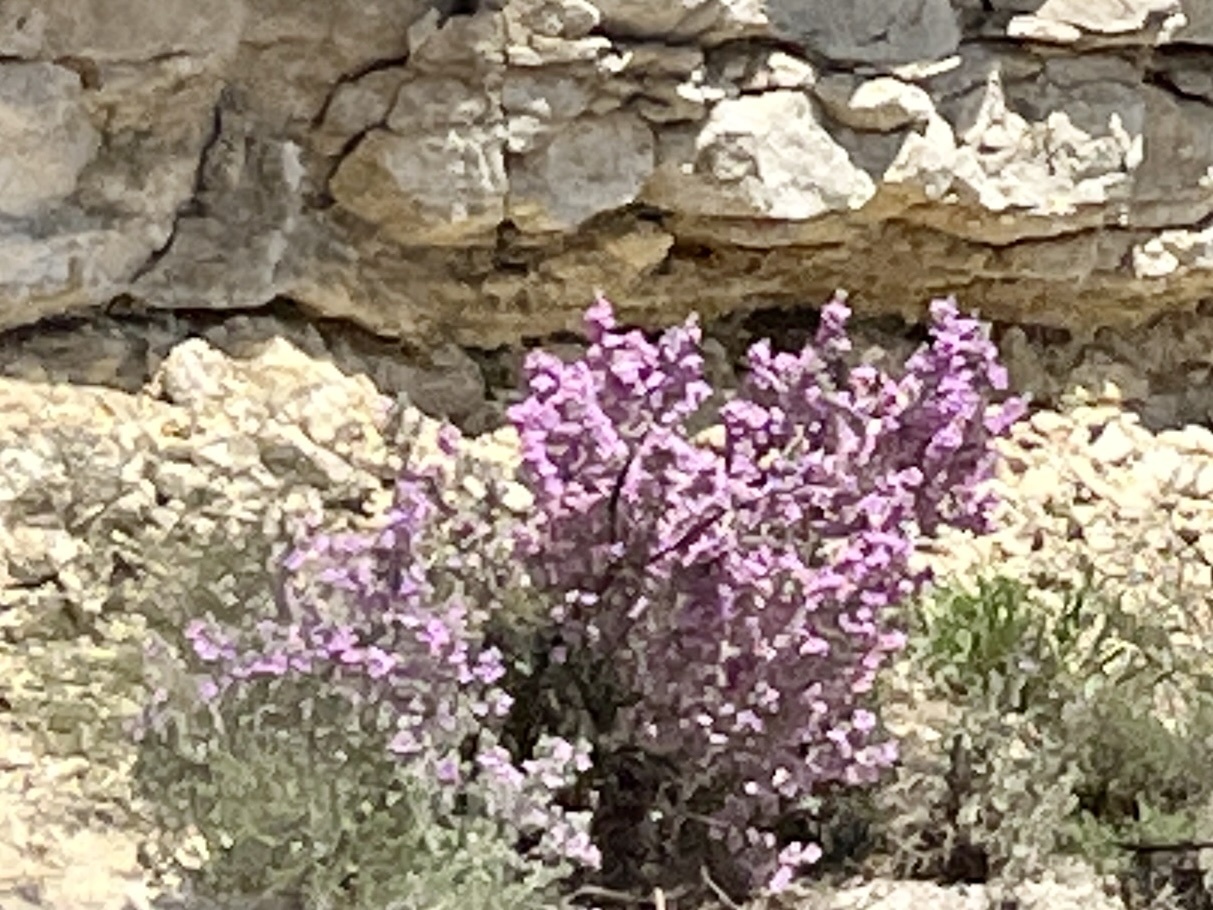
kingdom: Plantae
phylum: Tracheophyta
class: Magnoliopsida
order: Lamiales
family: Scrophulariaceae
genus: Leucophyllum
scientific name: Leucophyllum frutescens
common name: Texas silverleaf
